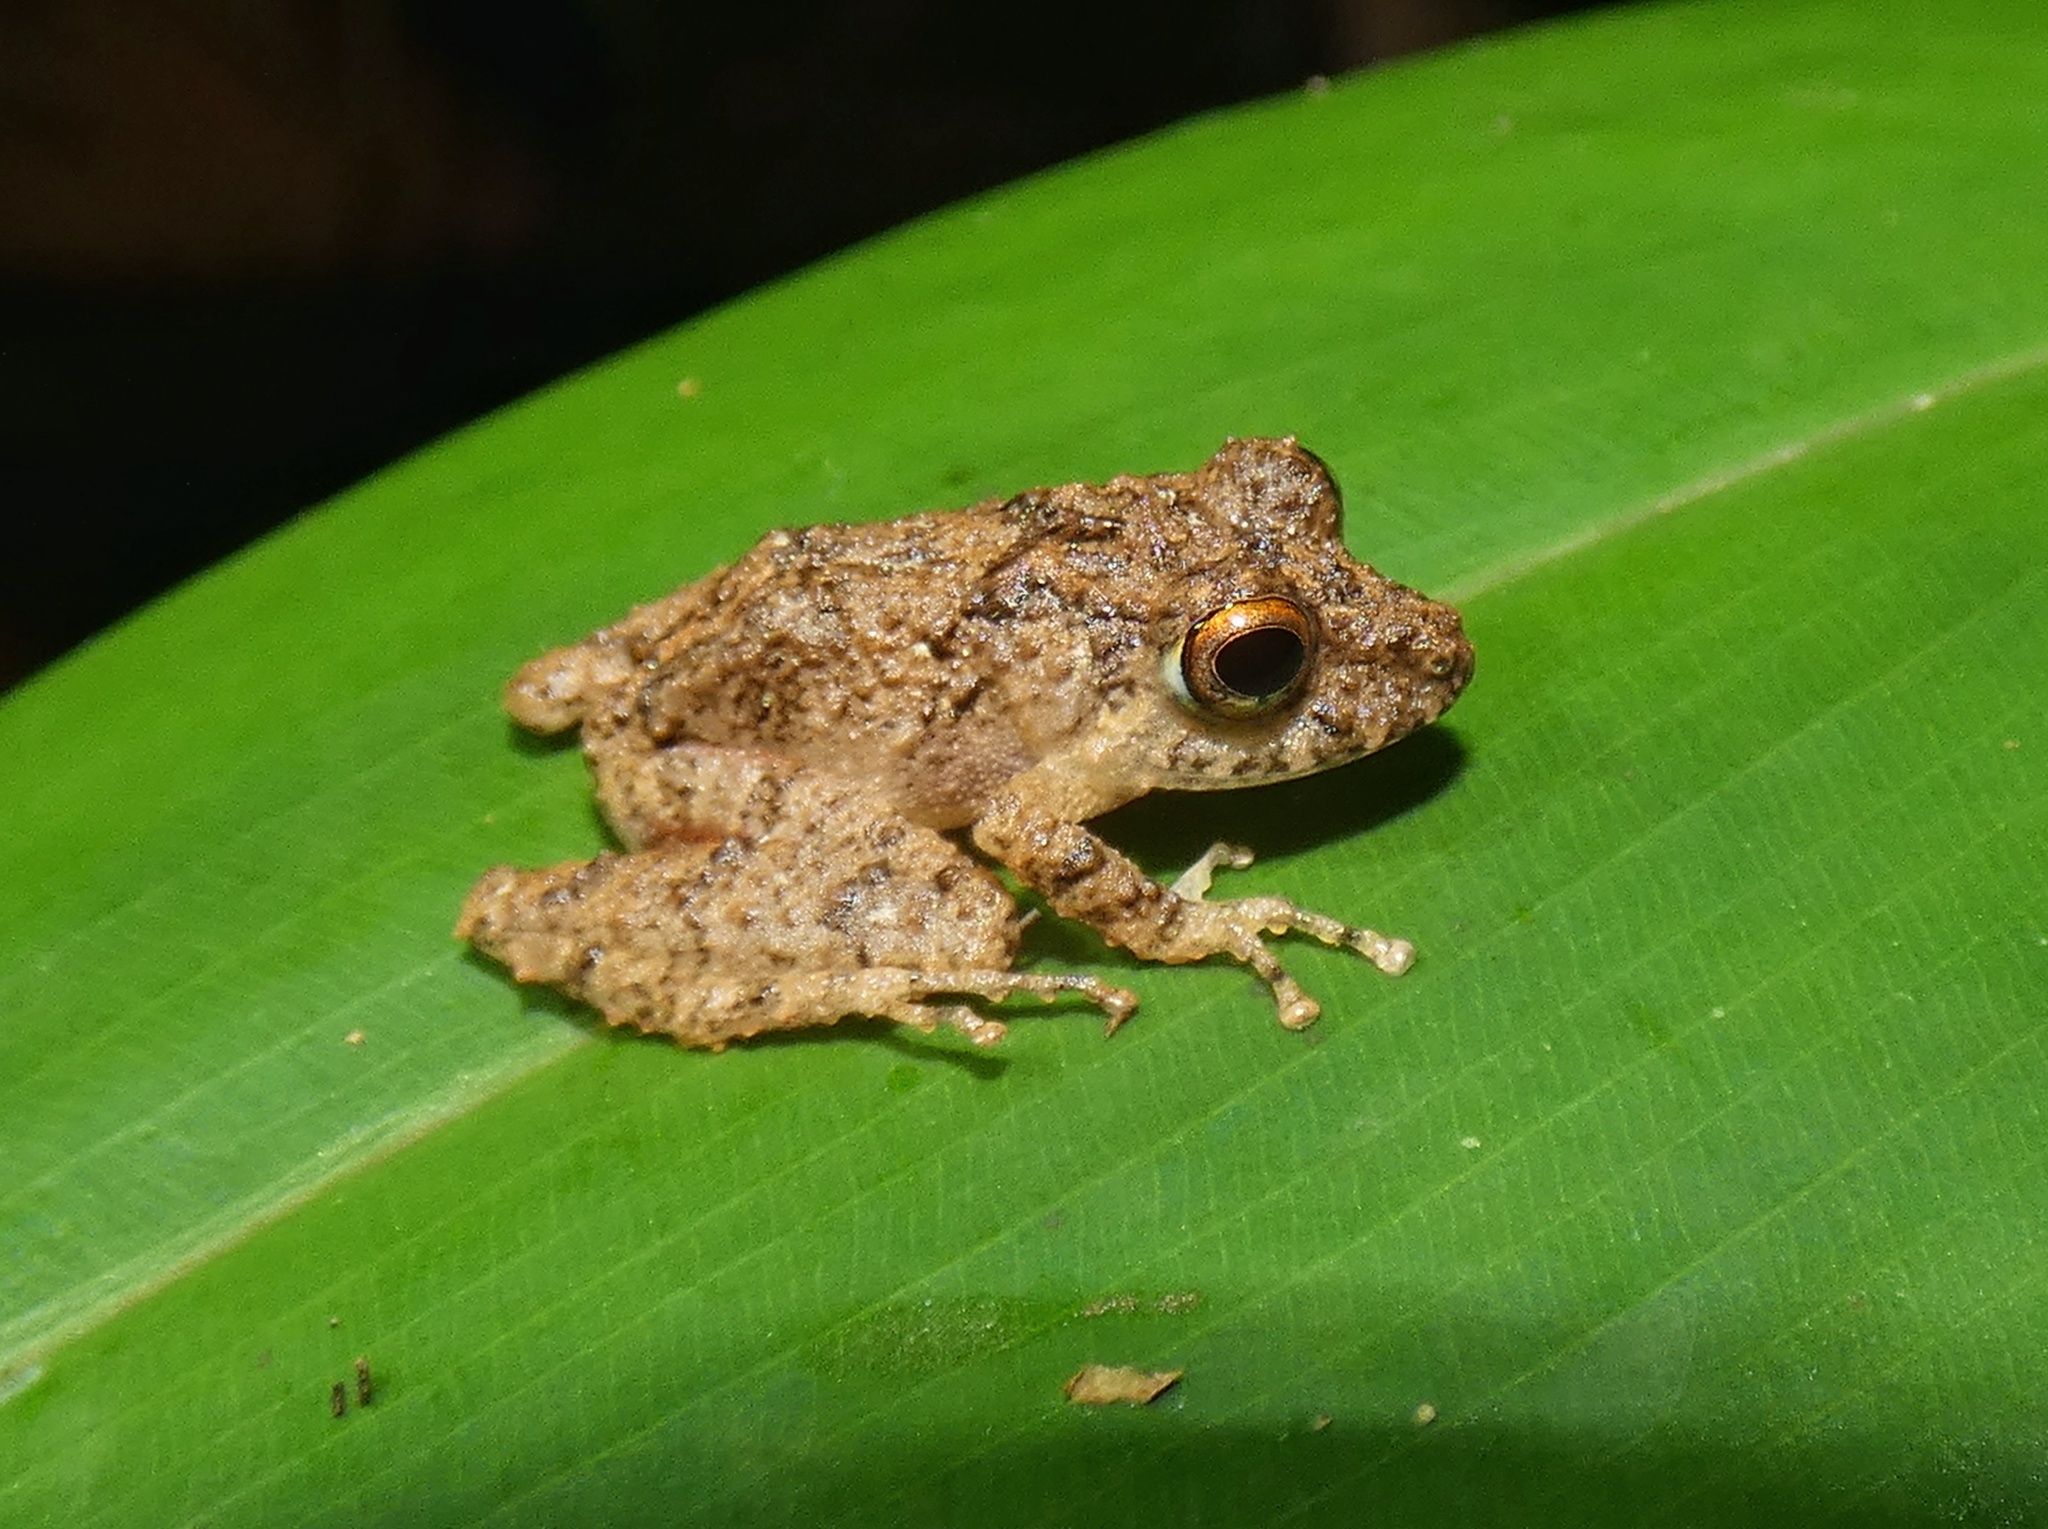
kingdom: Animalia
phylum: Chordata
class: Amphibia
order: Anura
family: Craugastoridae
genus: Pristimantis
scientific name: Pristimantis cerasinus
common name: Limon robber frog
